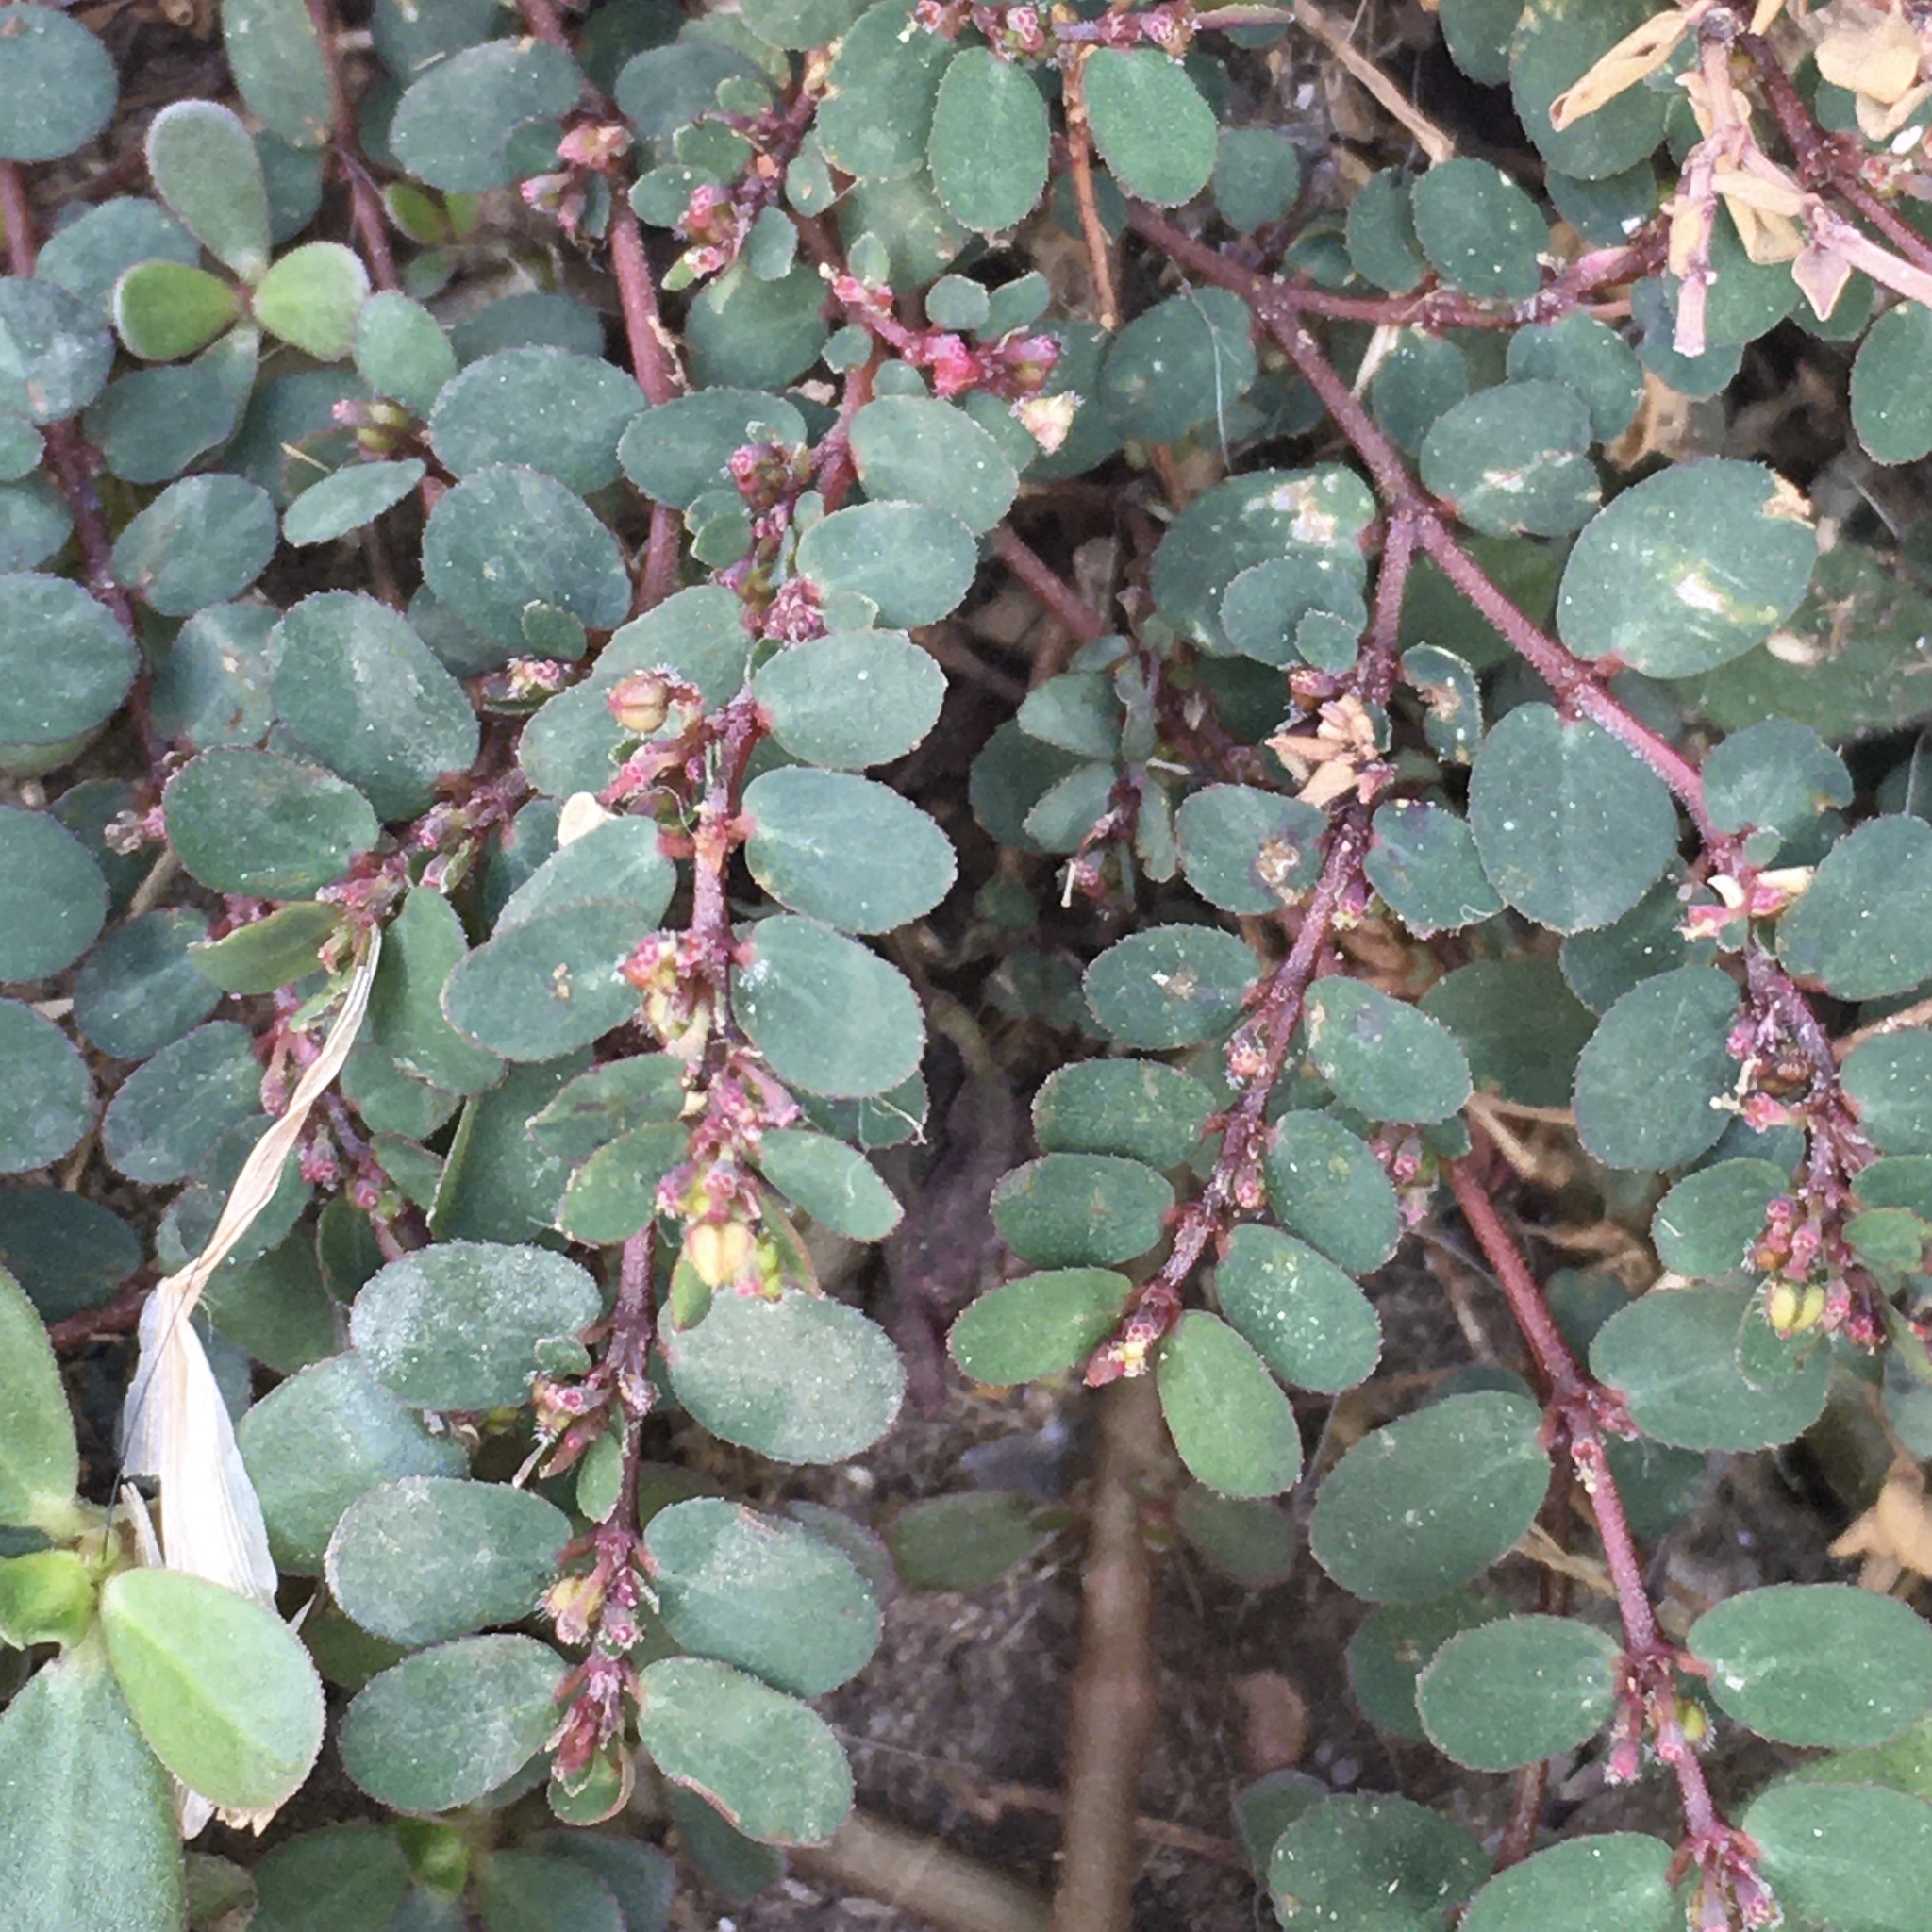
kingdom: Plantae
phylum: Tracheophyta
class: Magnoliopsida
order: Malpighiales
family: Euphorbiaceae
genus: Euphorbia
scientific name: Euphorbia prostrata
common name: Prostrate sandmat
